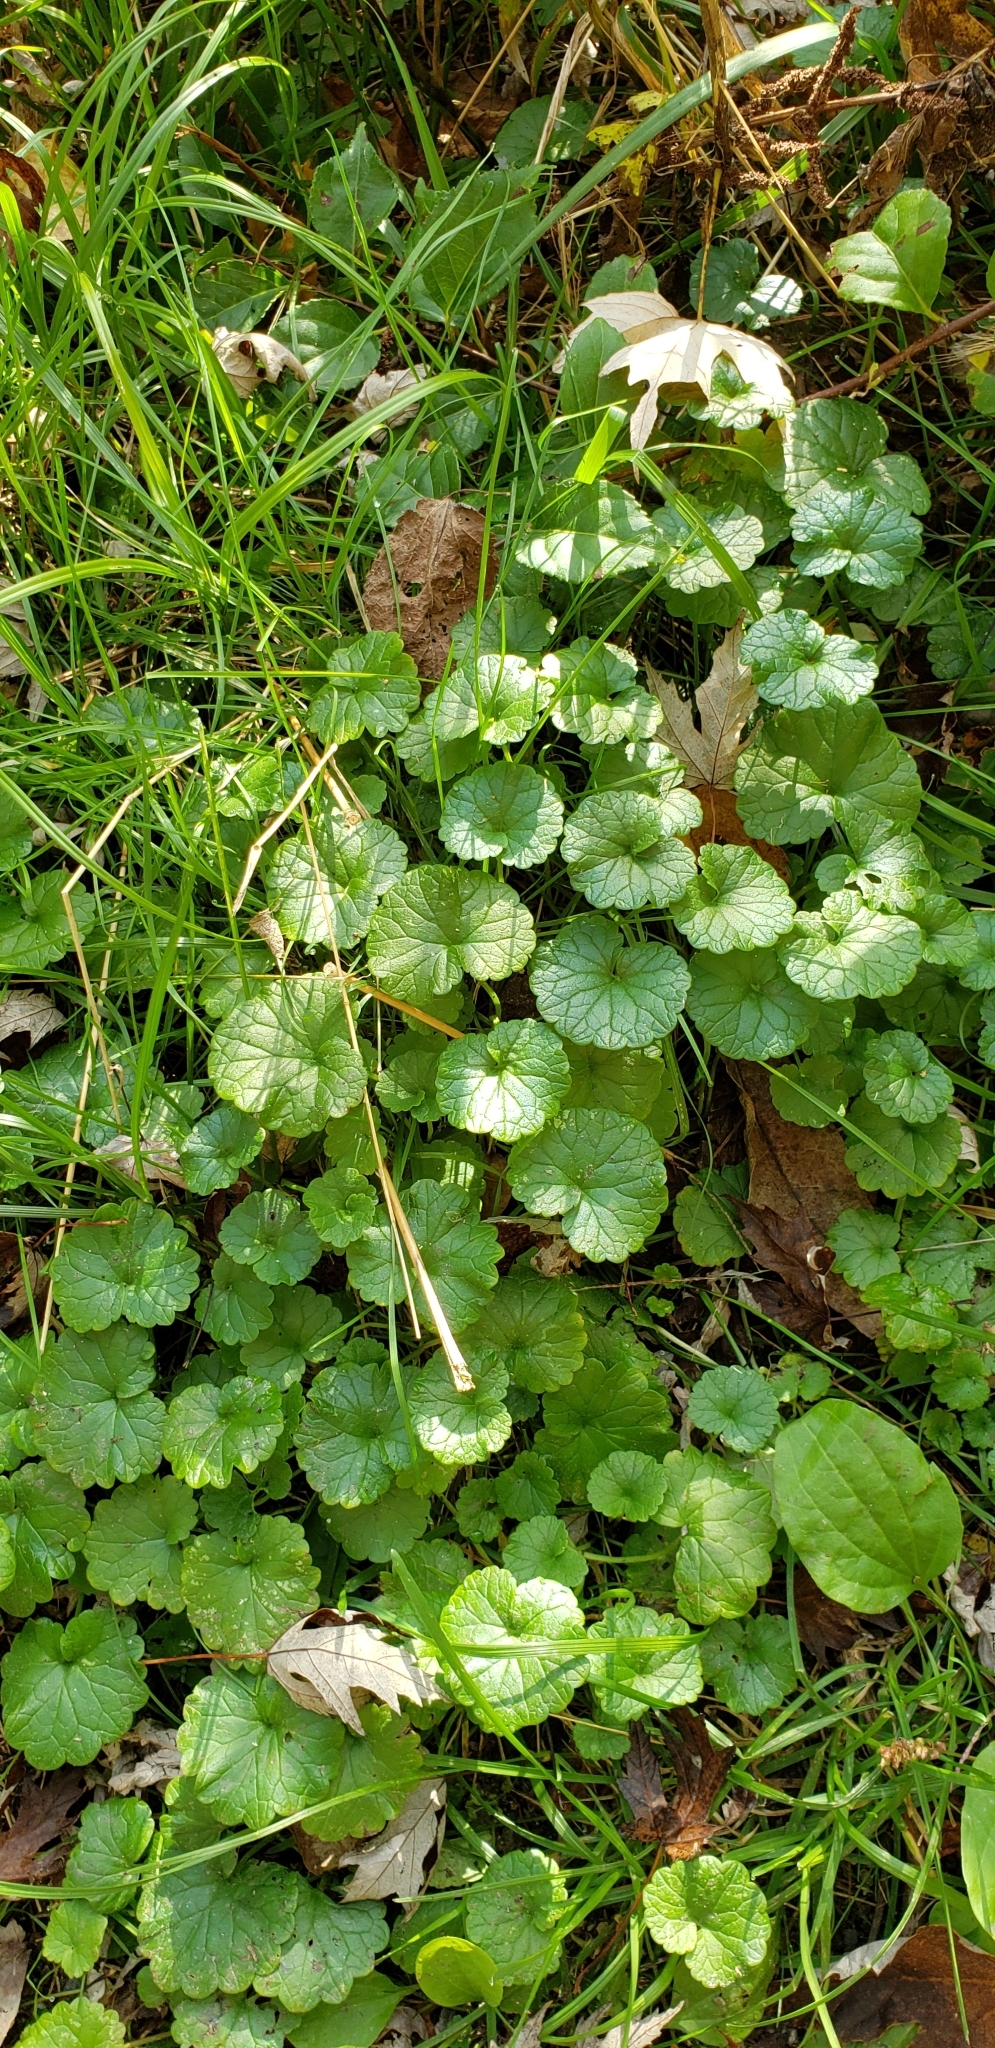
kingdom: Plantae
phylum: Tracheophyta
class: Magnoliopsida
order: Lamiales
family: Lamiaceae
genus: Glechoma
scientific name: Glechoma hederacea
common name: Ground ivy
